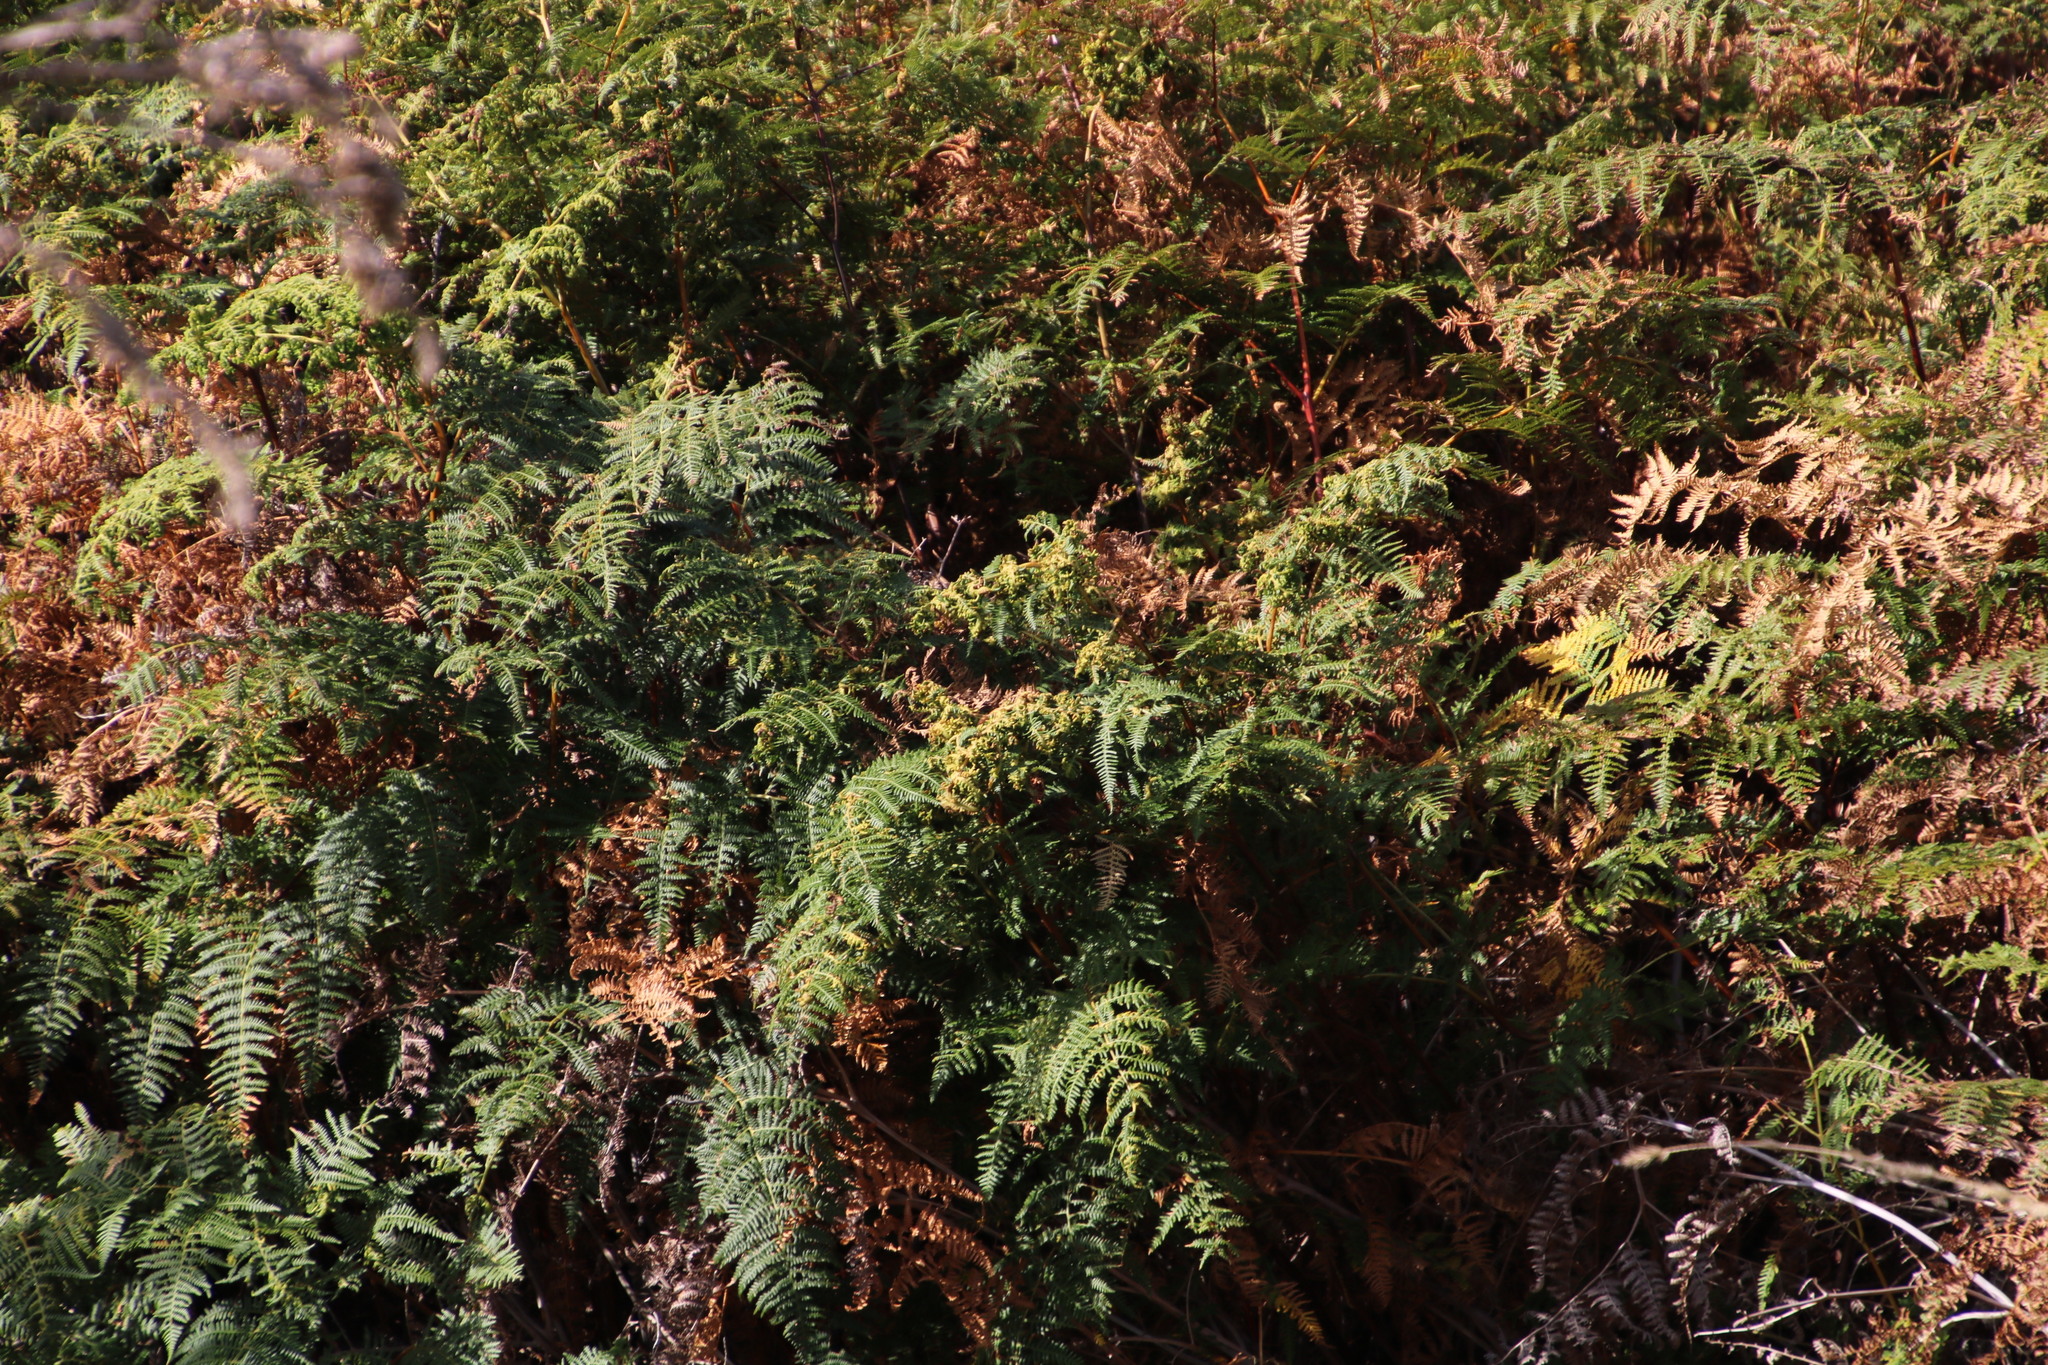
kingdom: Animalia
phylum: Arthropoda
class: Arachnida
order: Trombidiformes
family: Eriophyidae
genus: Eriophyes
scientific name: Eriophyes
